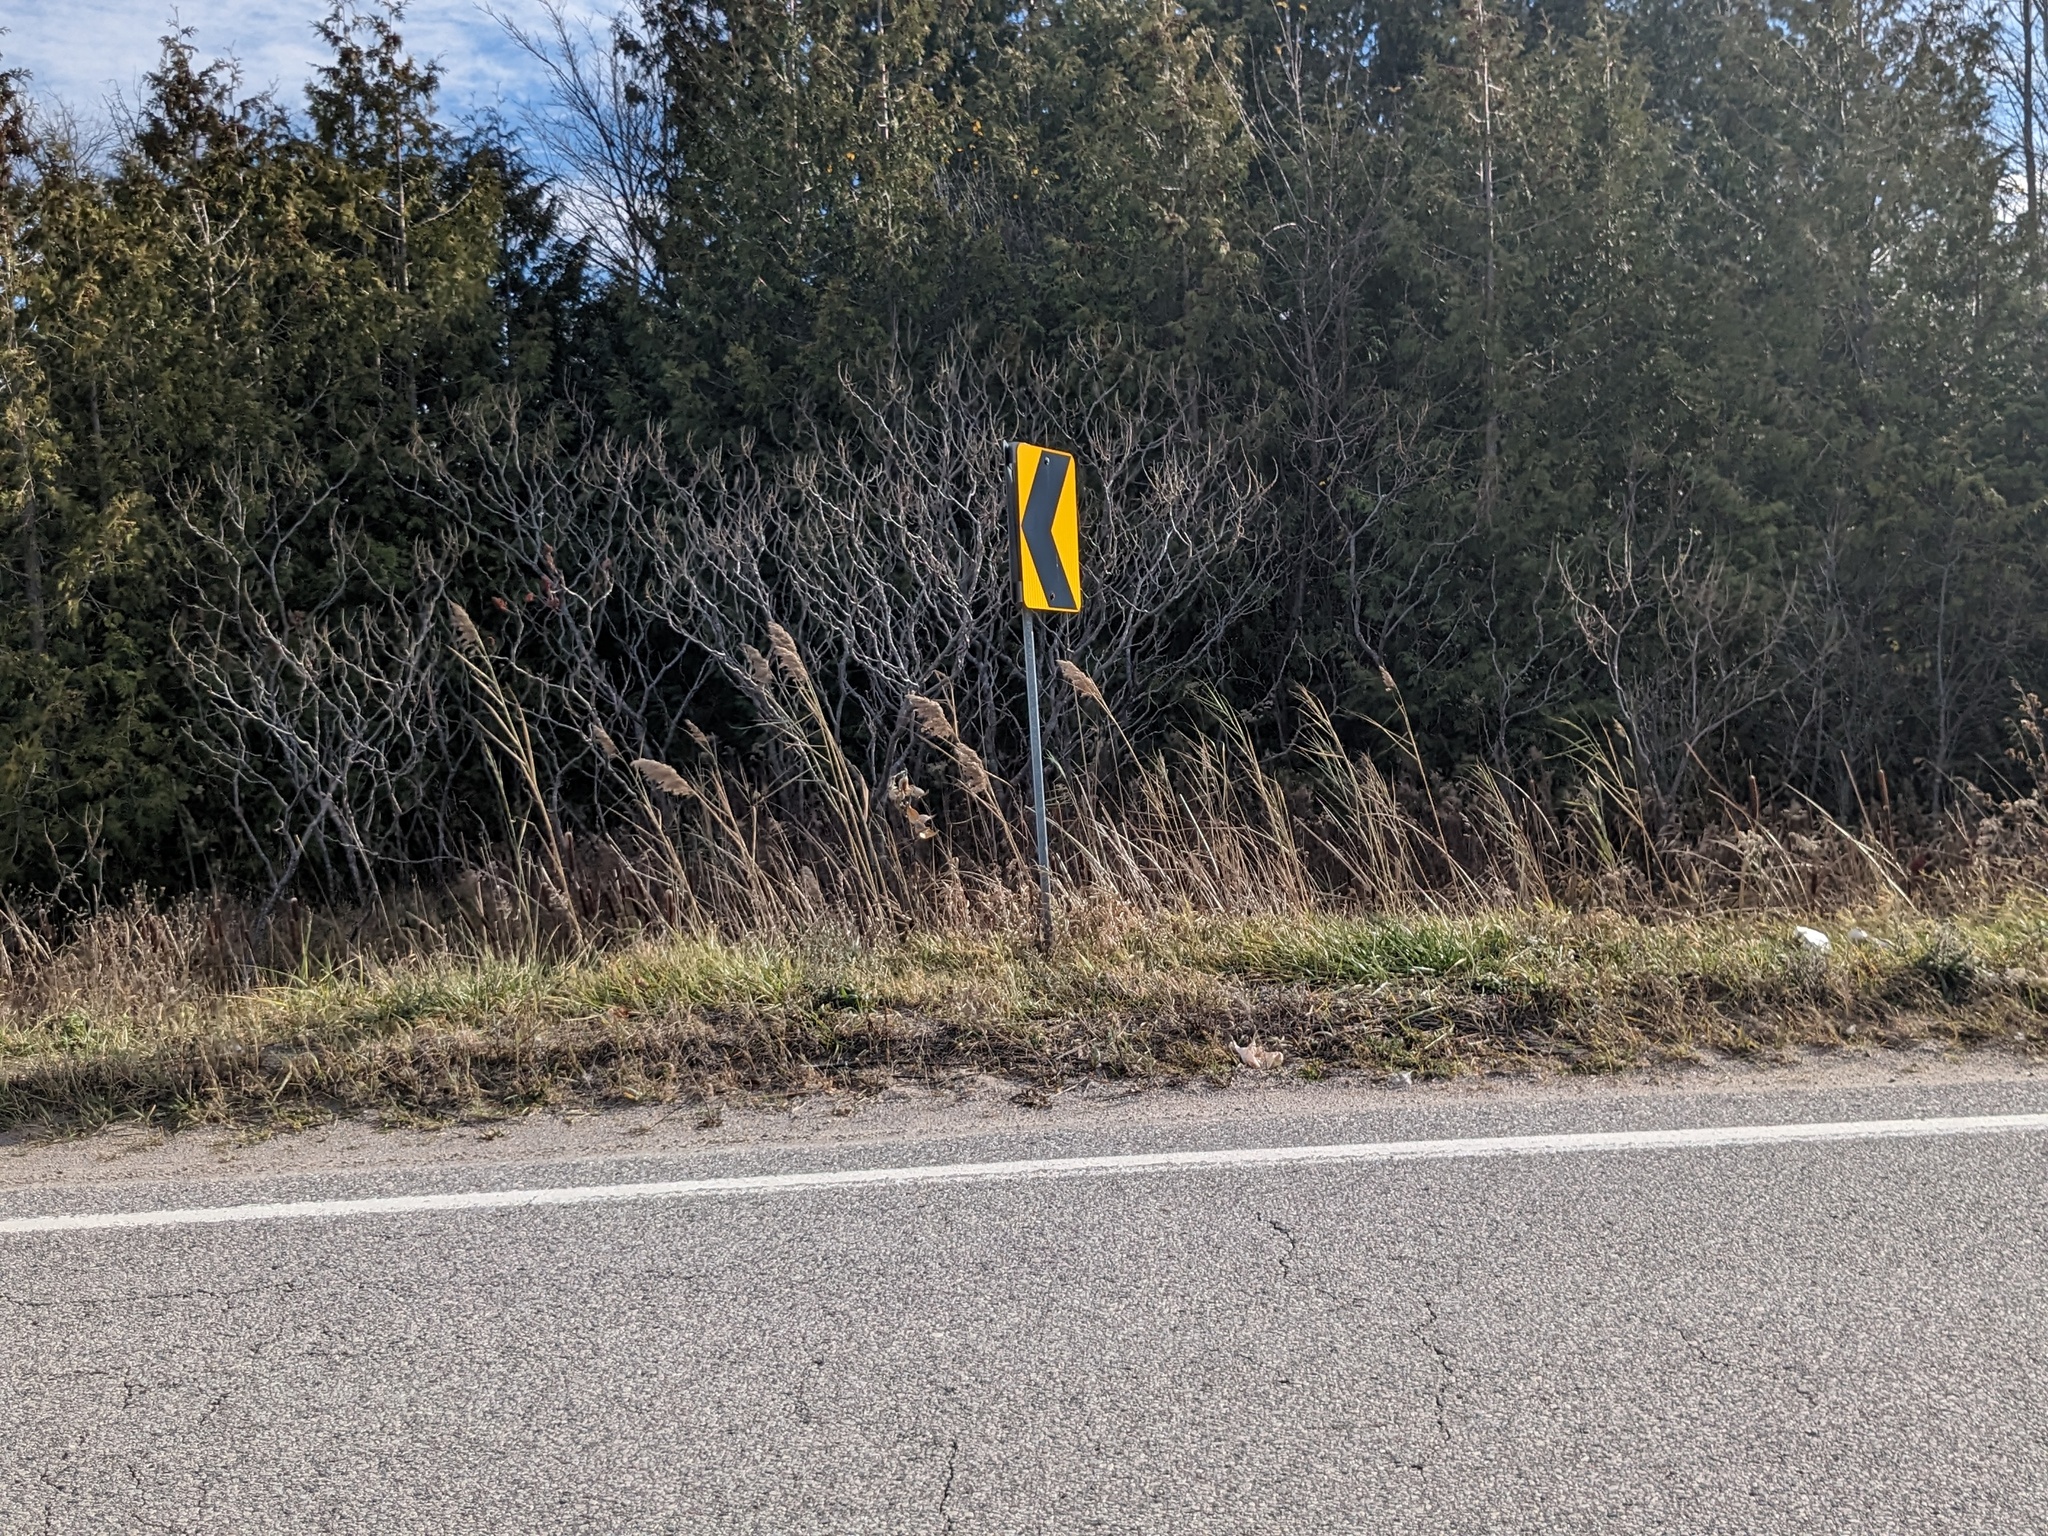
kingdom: Plantae
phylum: Tracheophyta
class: Liliopsida
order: Poales
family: Poaceae
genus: Phragmites
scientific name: Phragmites australis
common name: Common reed
